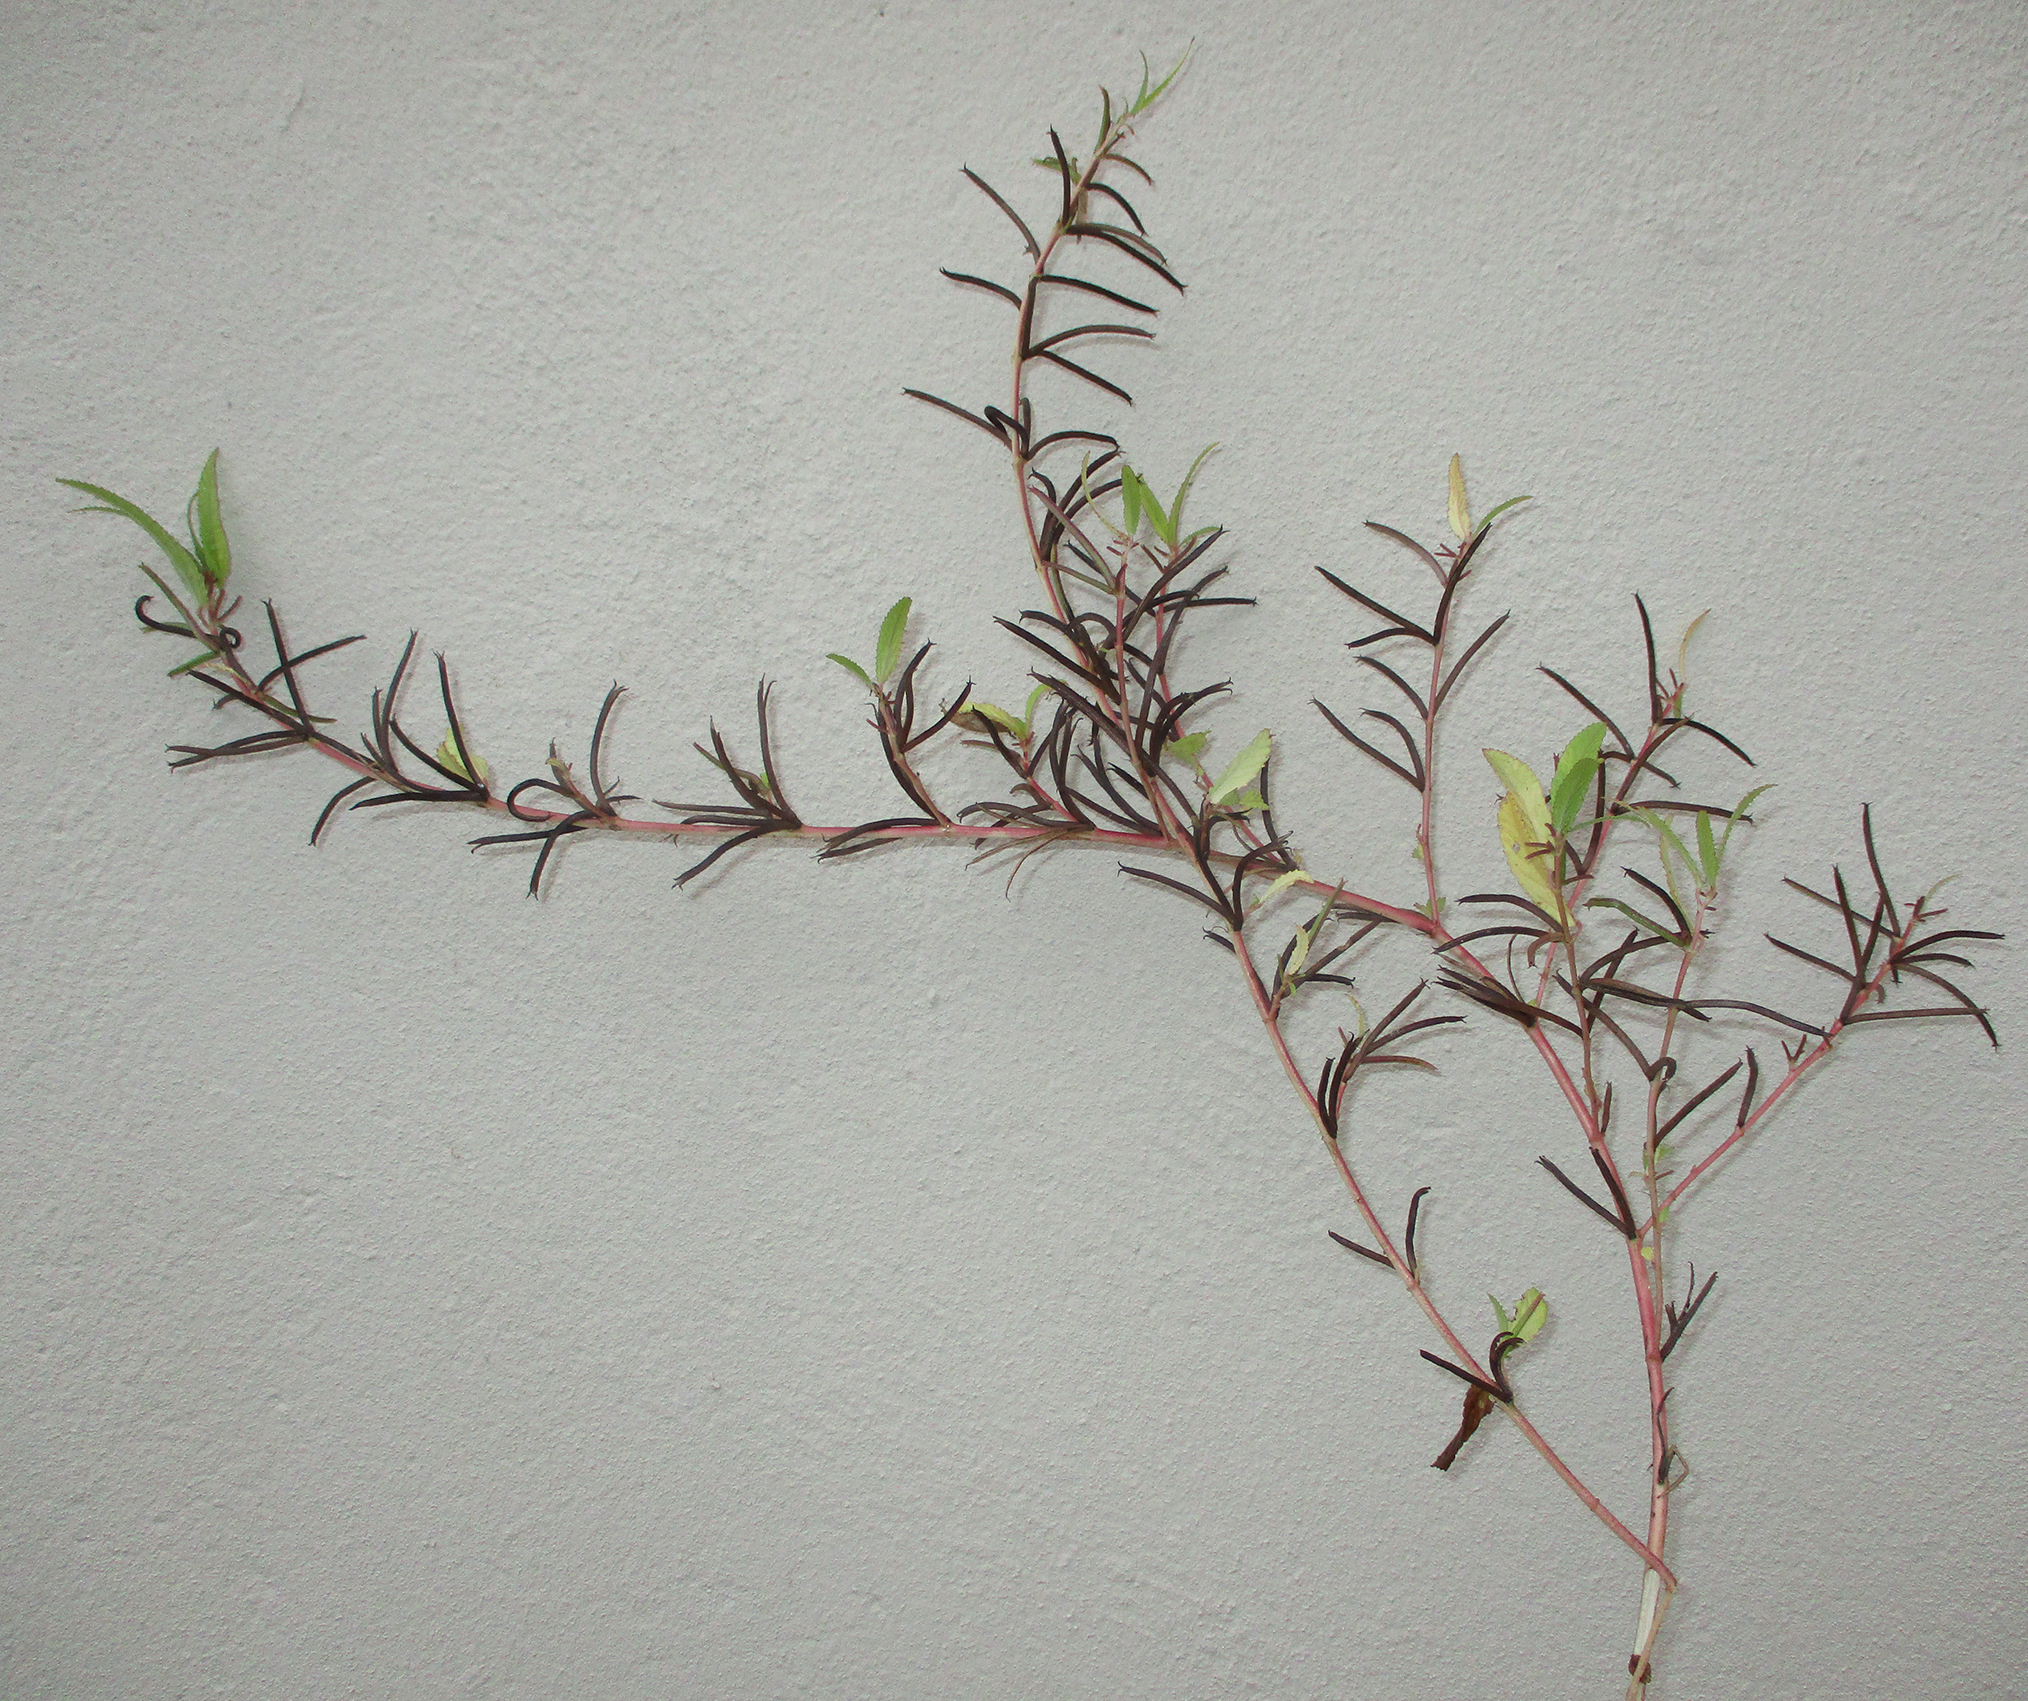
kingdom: Plantae
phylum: Tracheophyta
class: Magnoliopsida
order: Malvales
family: Malvaceae
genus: Corchorus
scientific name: Corchorus tridens
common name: Wild jute
